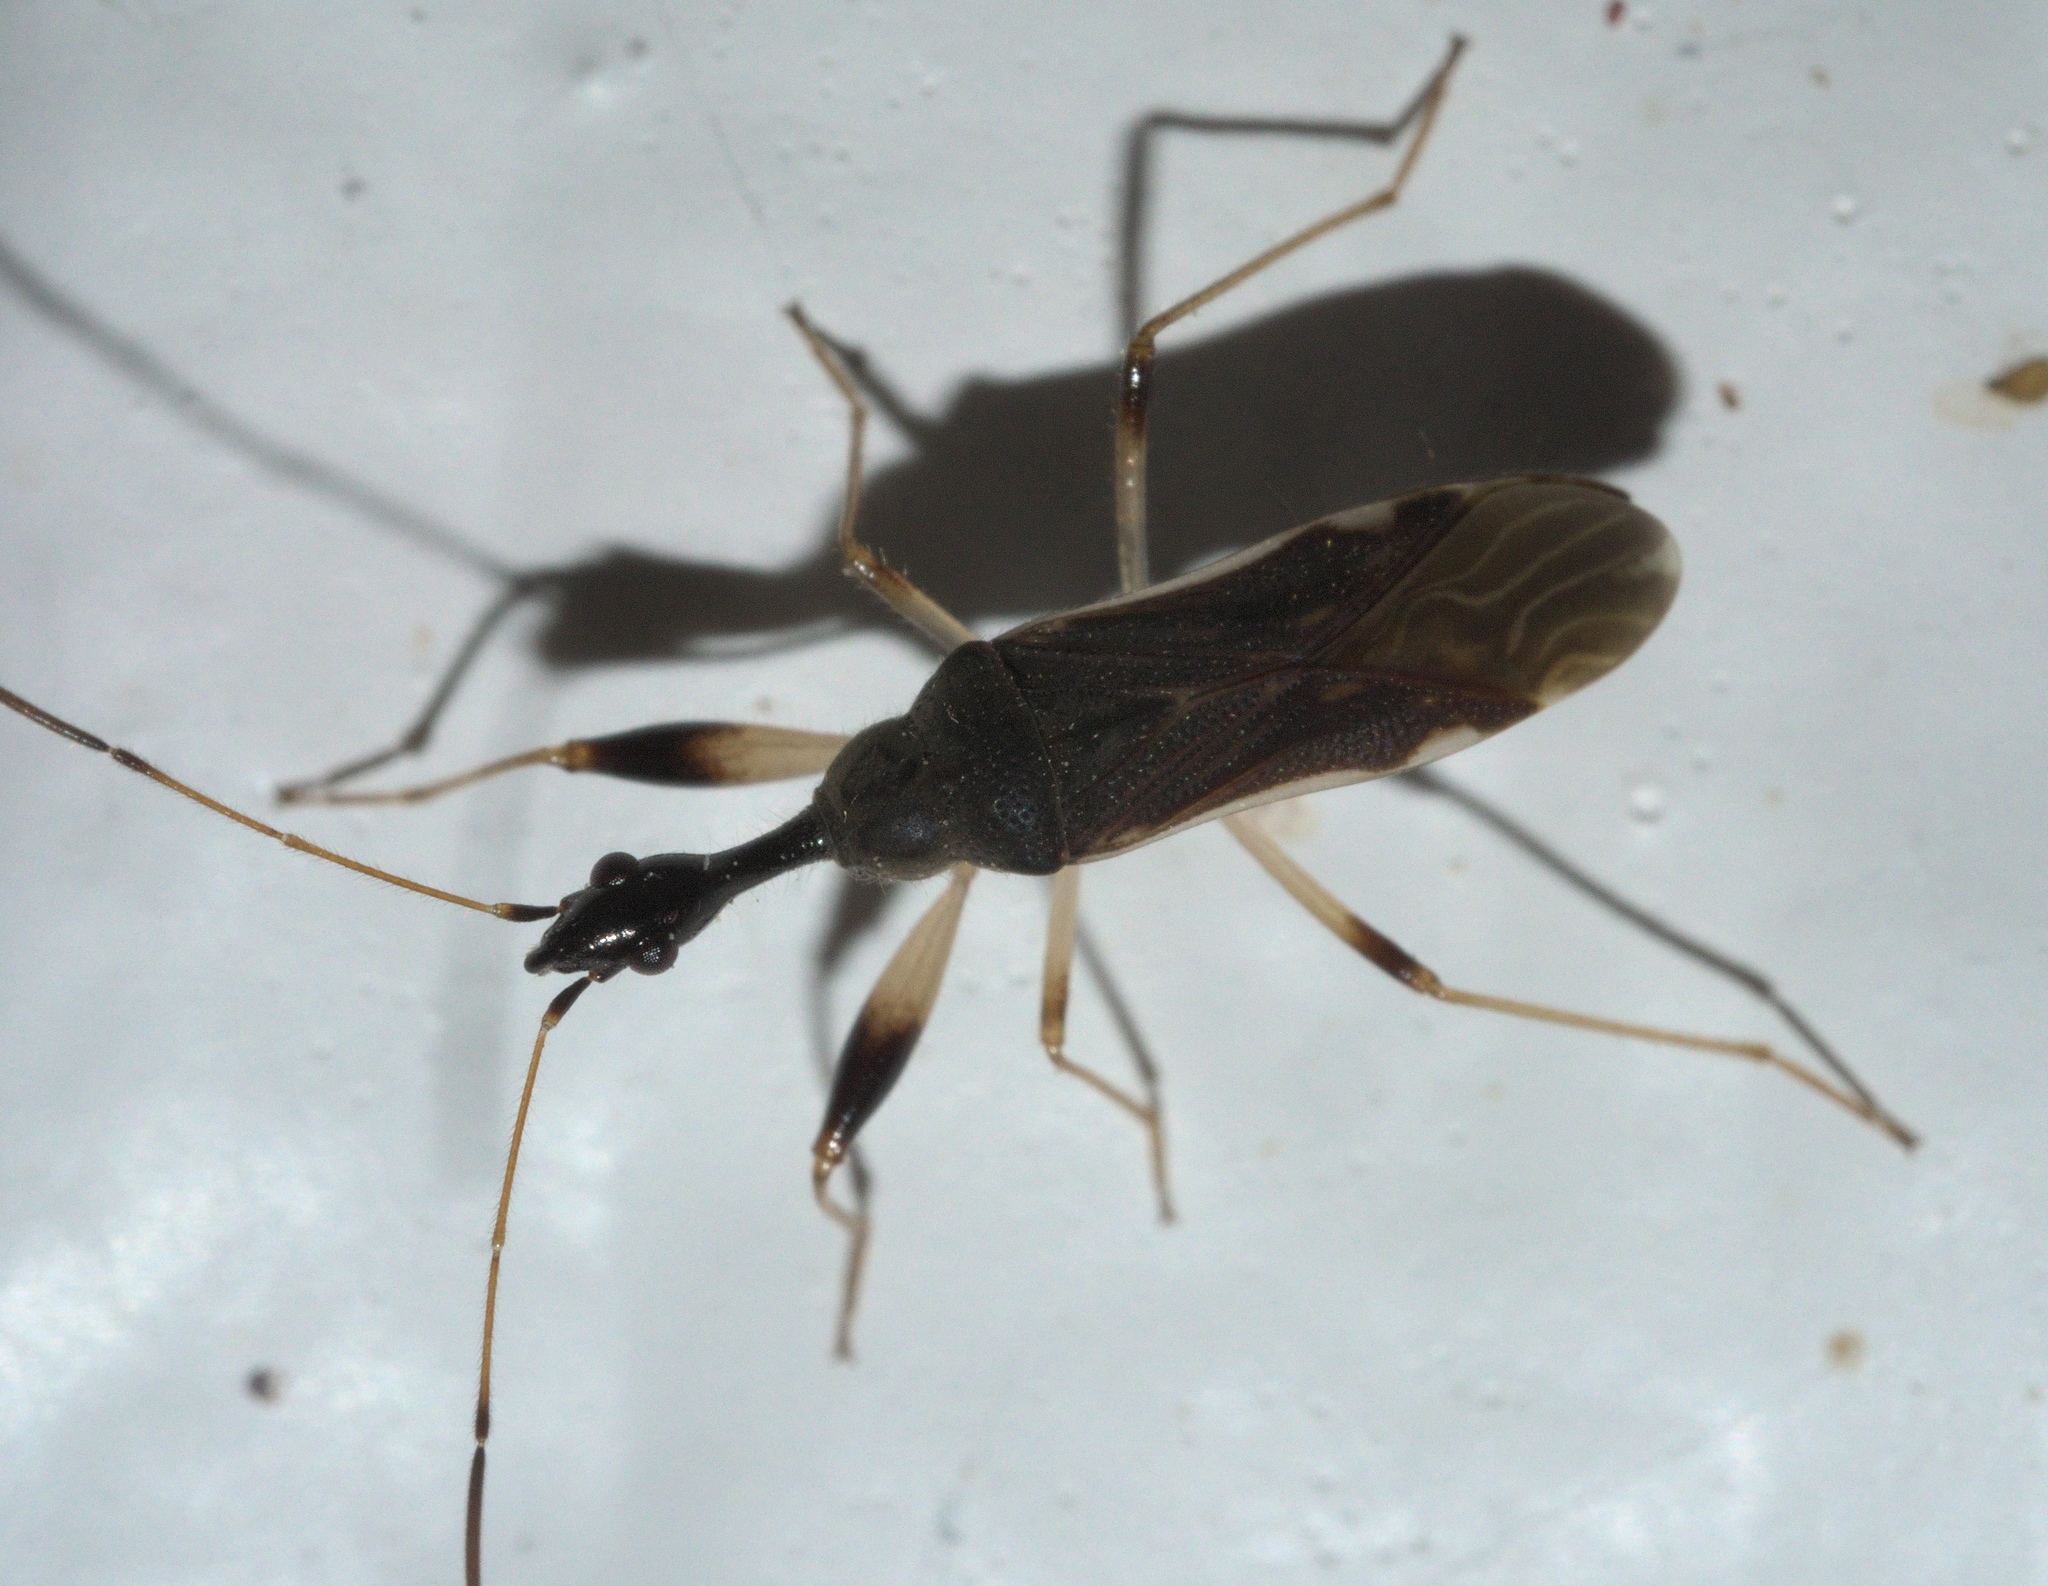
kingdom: Animalia
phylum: Arthropoda
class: Insecta
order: Hemiptera
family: Rhyparochromidae
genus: Myodocha
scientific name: Myodocha serripes
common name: Long-necked seed bug
